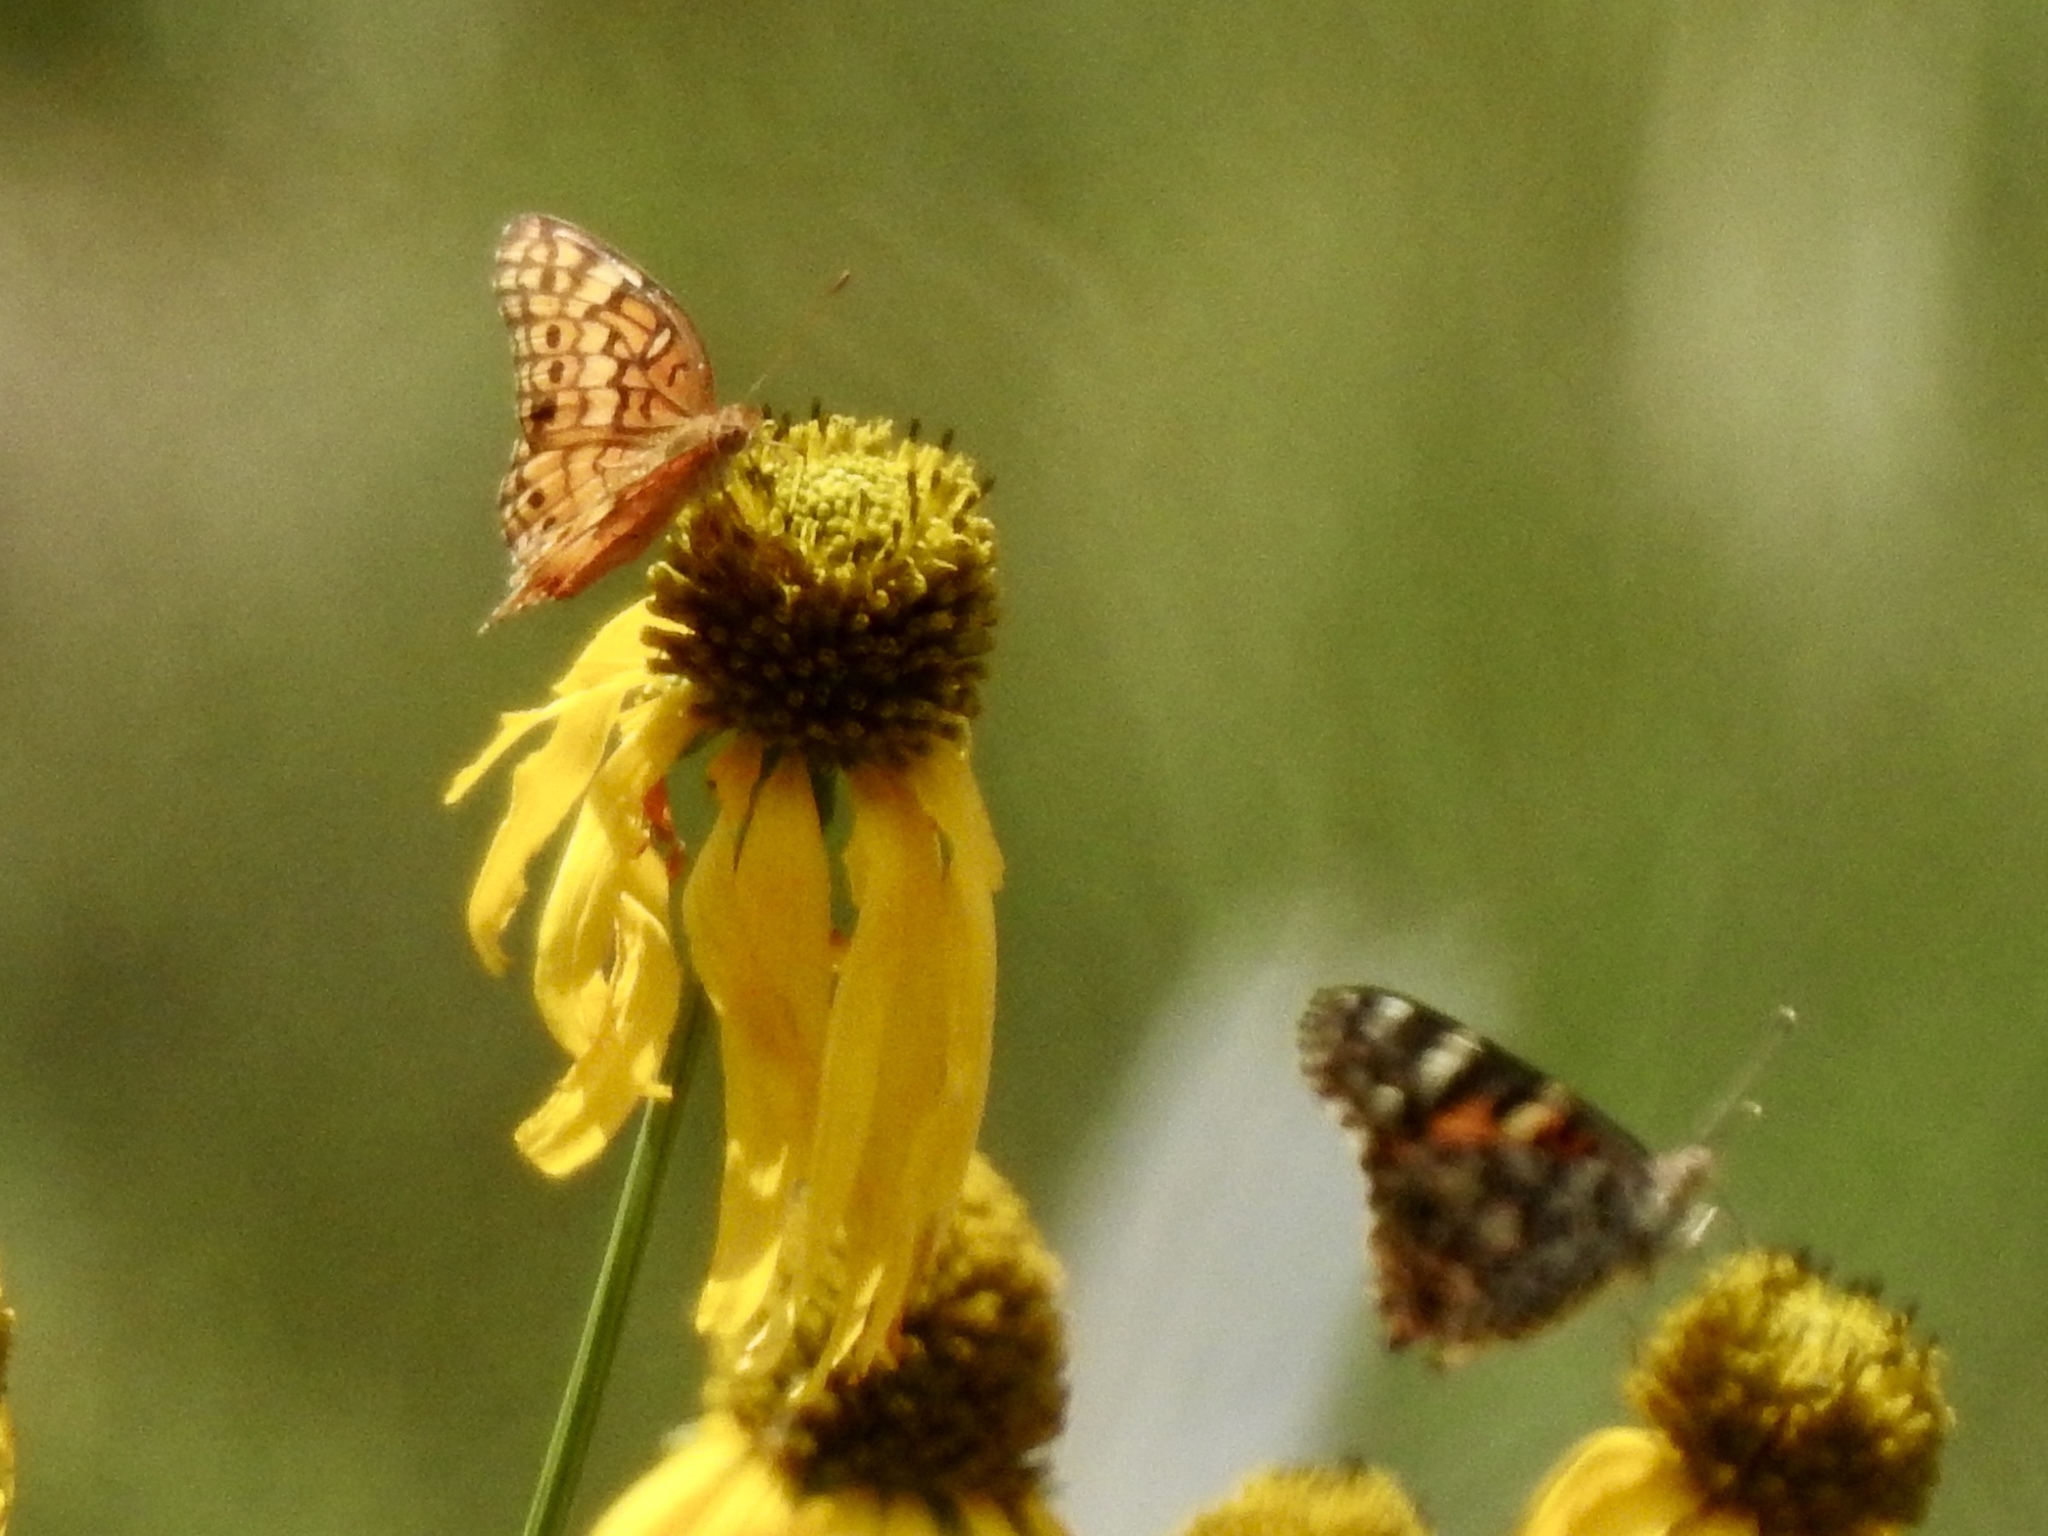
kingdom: Animalia
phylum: Arthropoda
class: Insecta
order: Lepidoptera
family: Nymphalidae
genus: Euptoieta
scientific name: Euptoieta claudia
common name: Variegated fritillary
